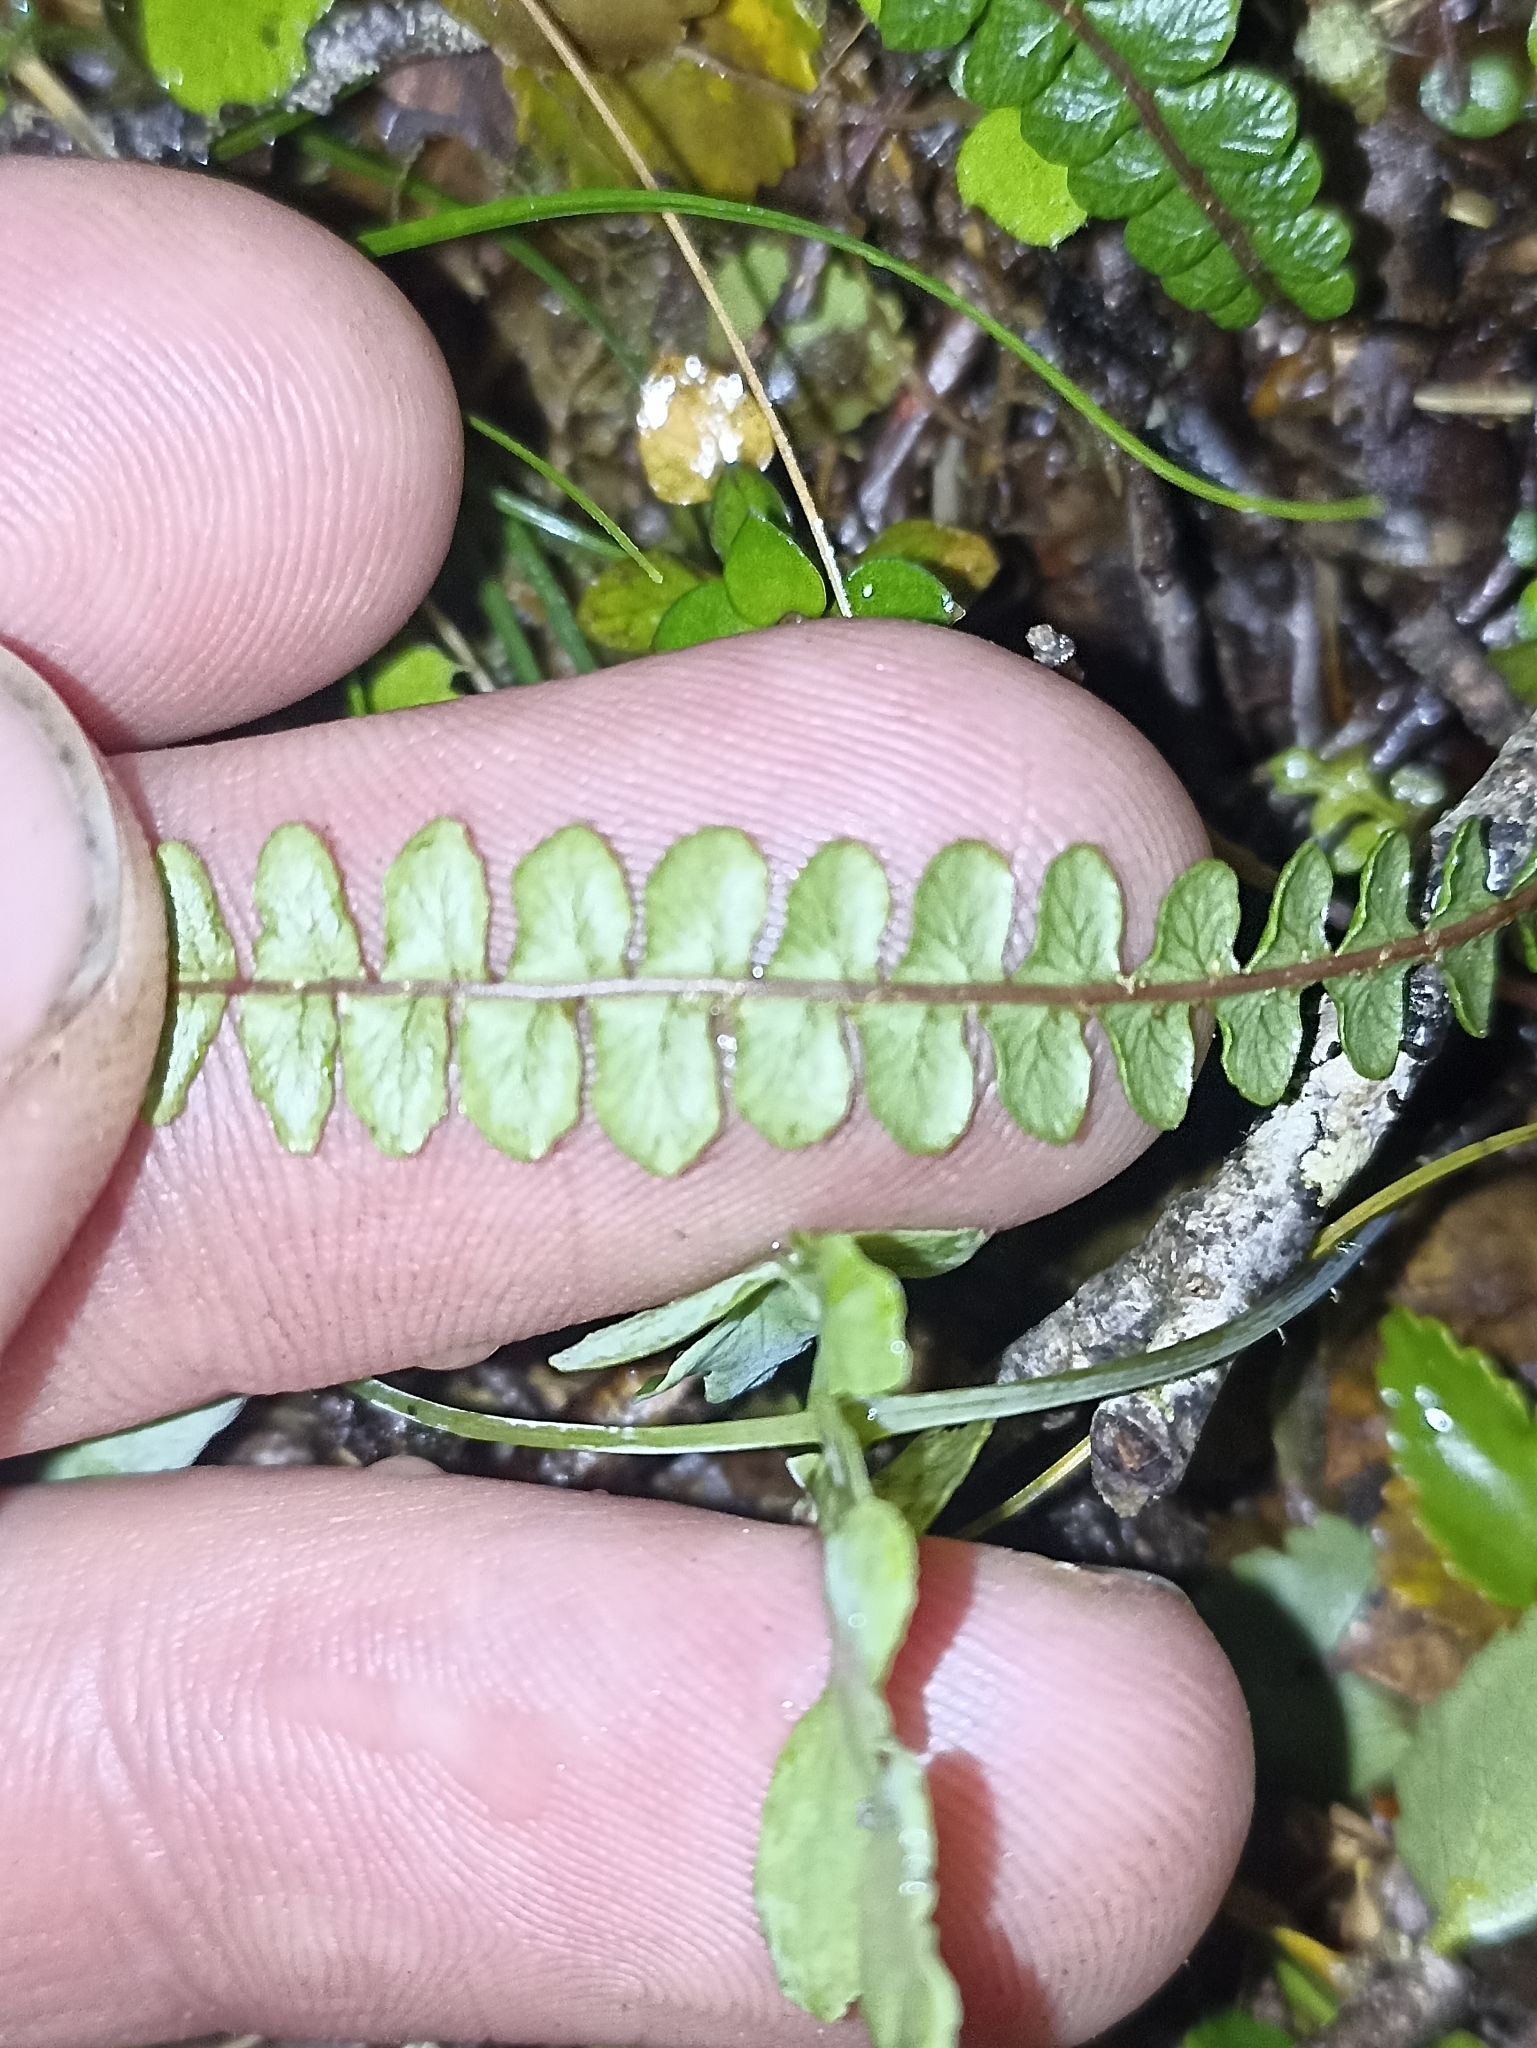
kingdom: Plantae
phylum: Tracheophyta
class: Polypodiopsida
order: Polypodiales
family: Blechnaceae
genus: Austroblechnum
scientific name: Austroblechnum penna-marina
